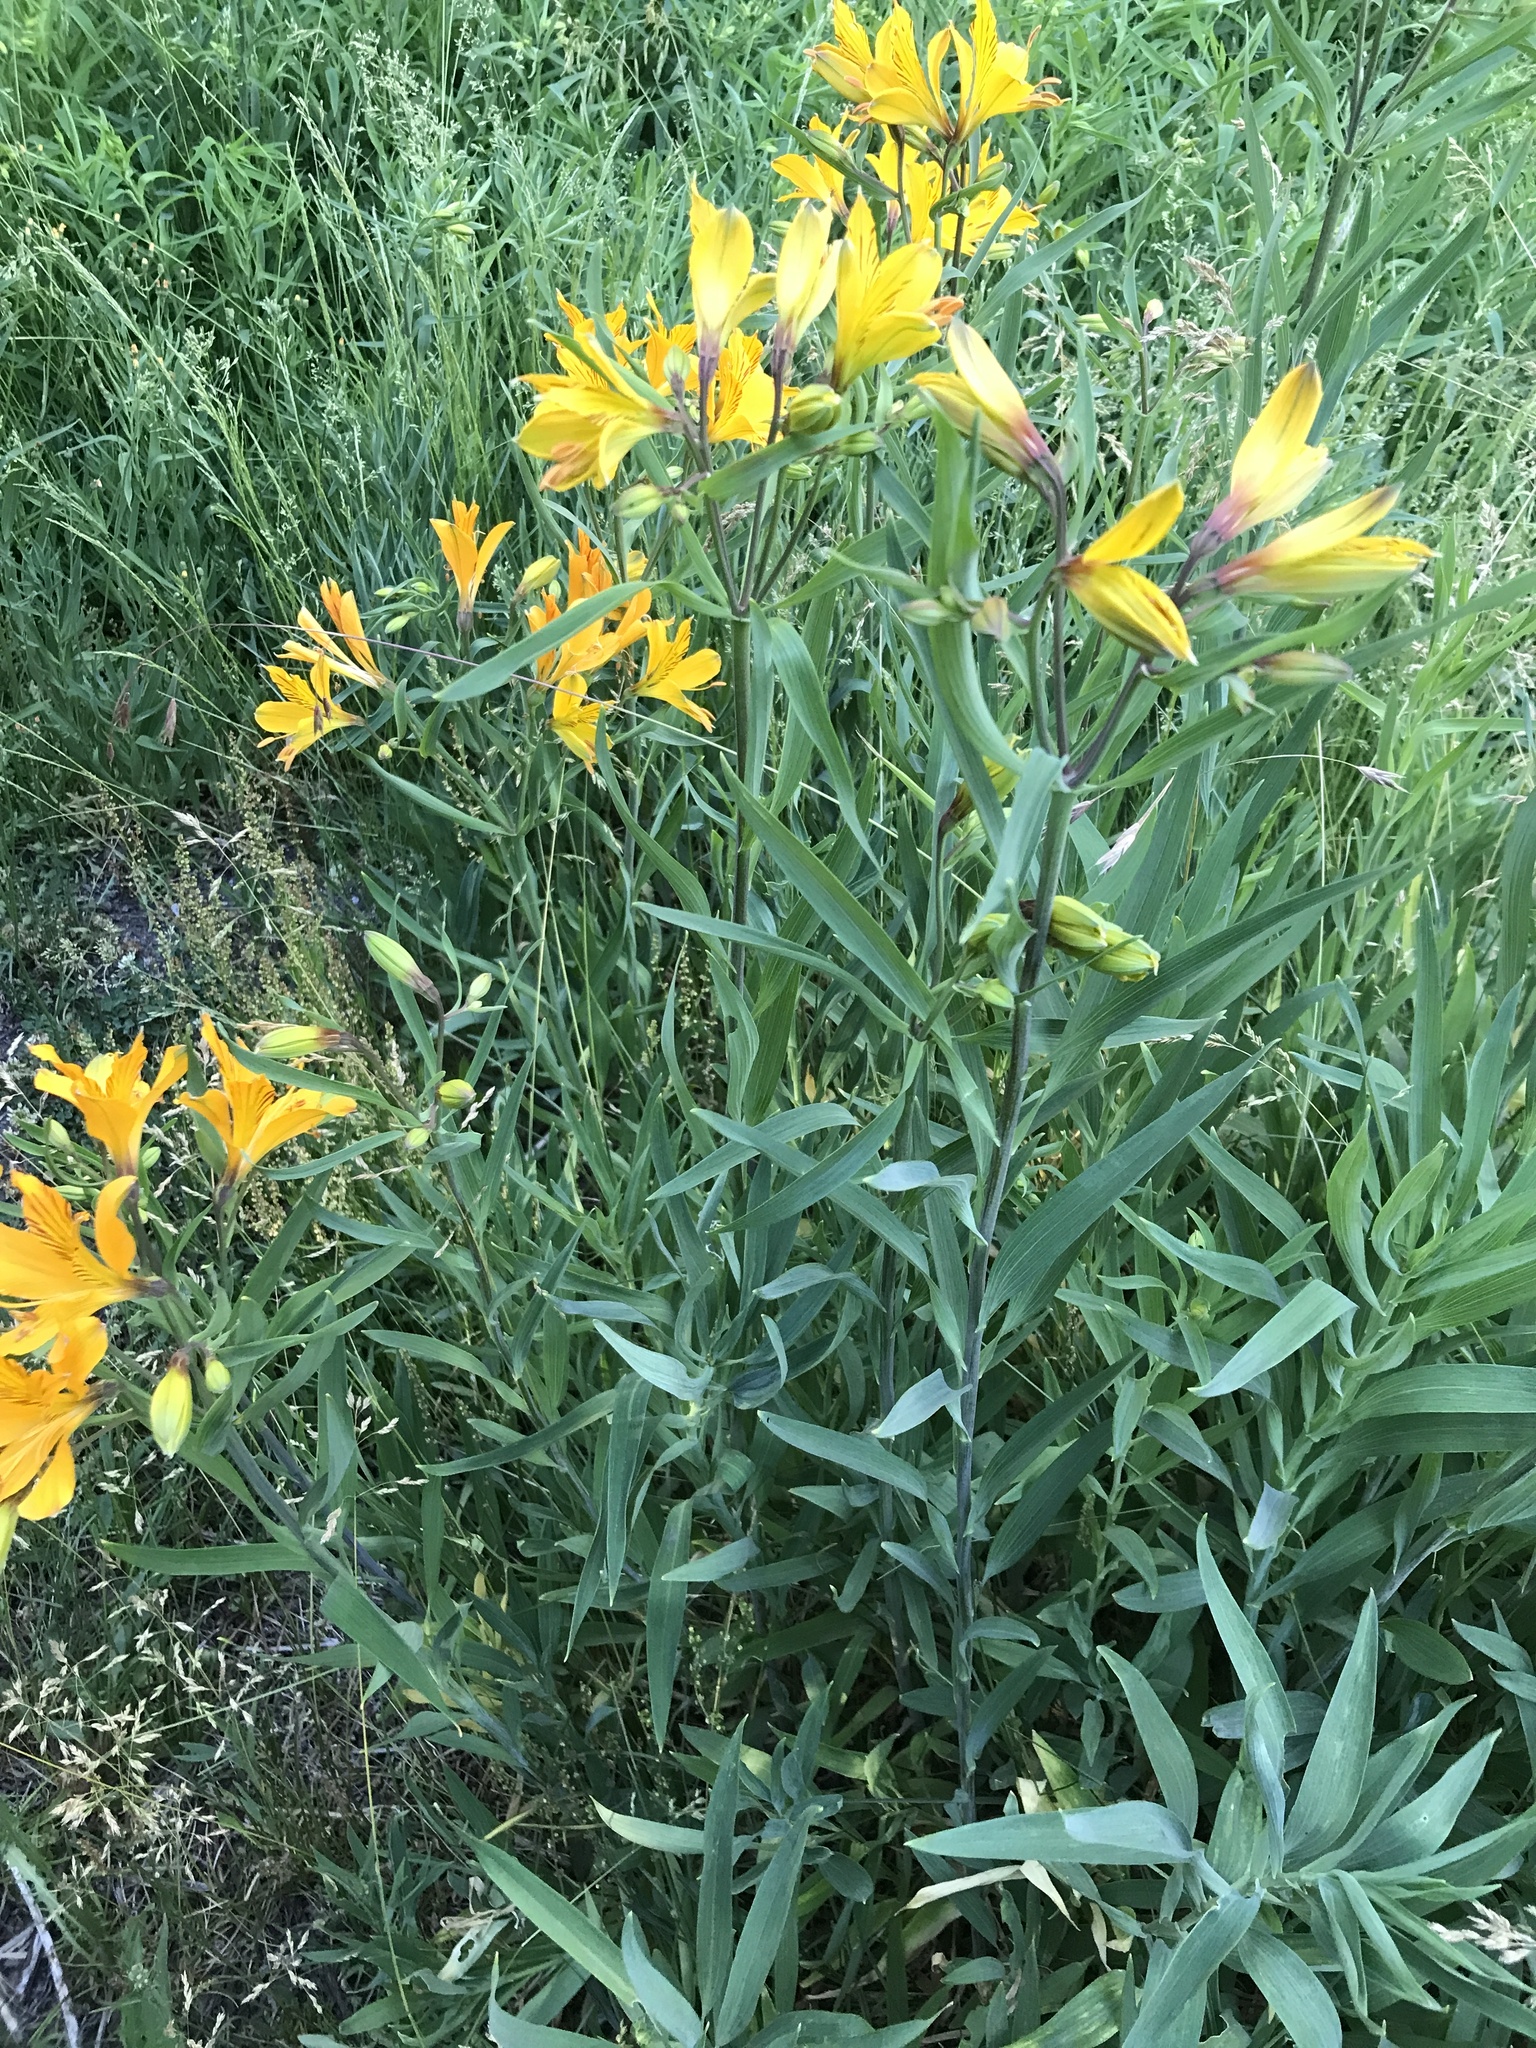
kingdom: Plantae
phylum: Tracheophyta
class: Liliopsida
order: Liliales
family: Alstroemeriaceae
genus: Alstroemeria
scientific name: Alstroemeria aurea
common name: Peruvian lily
